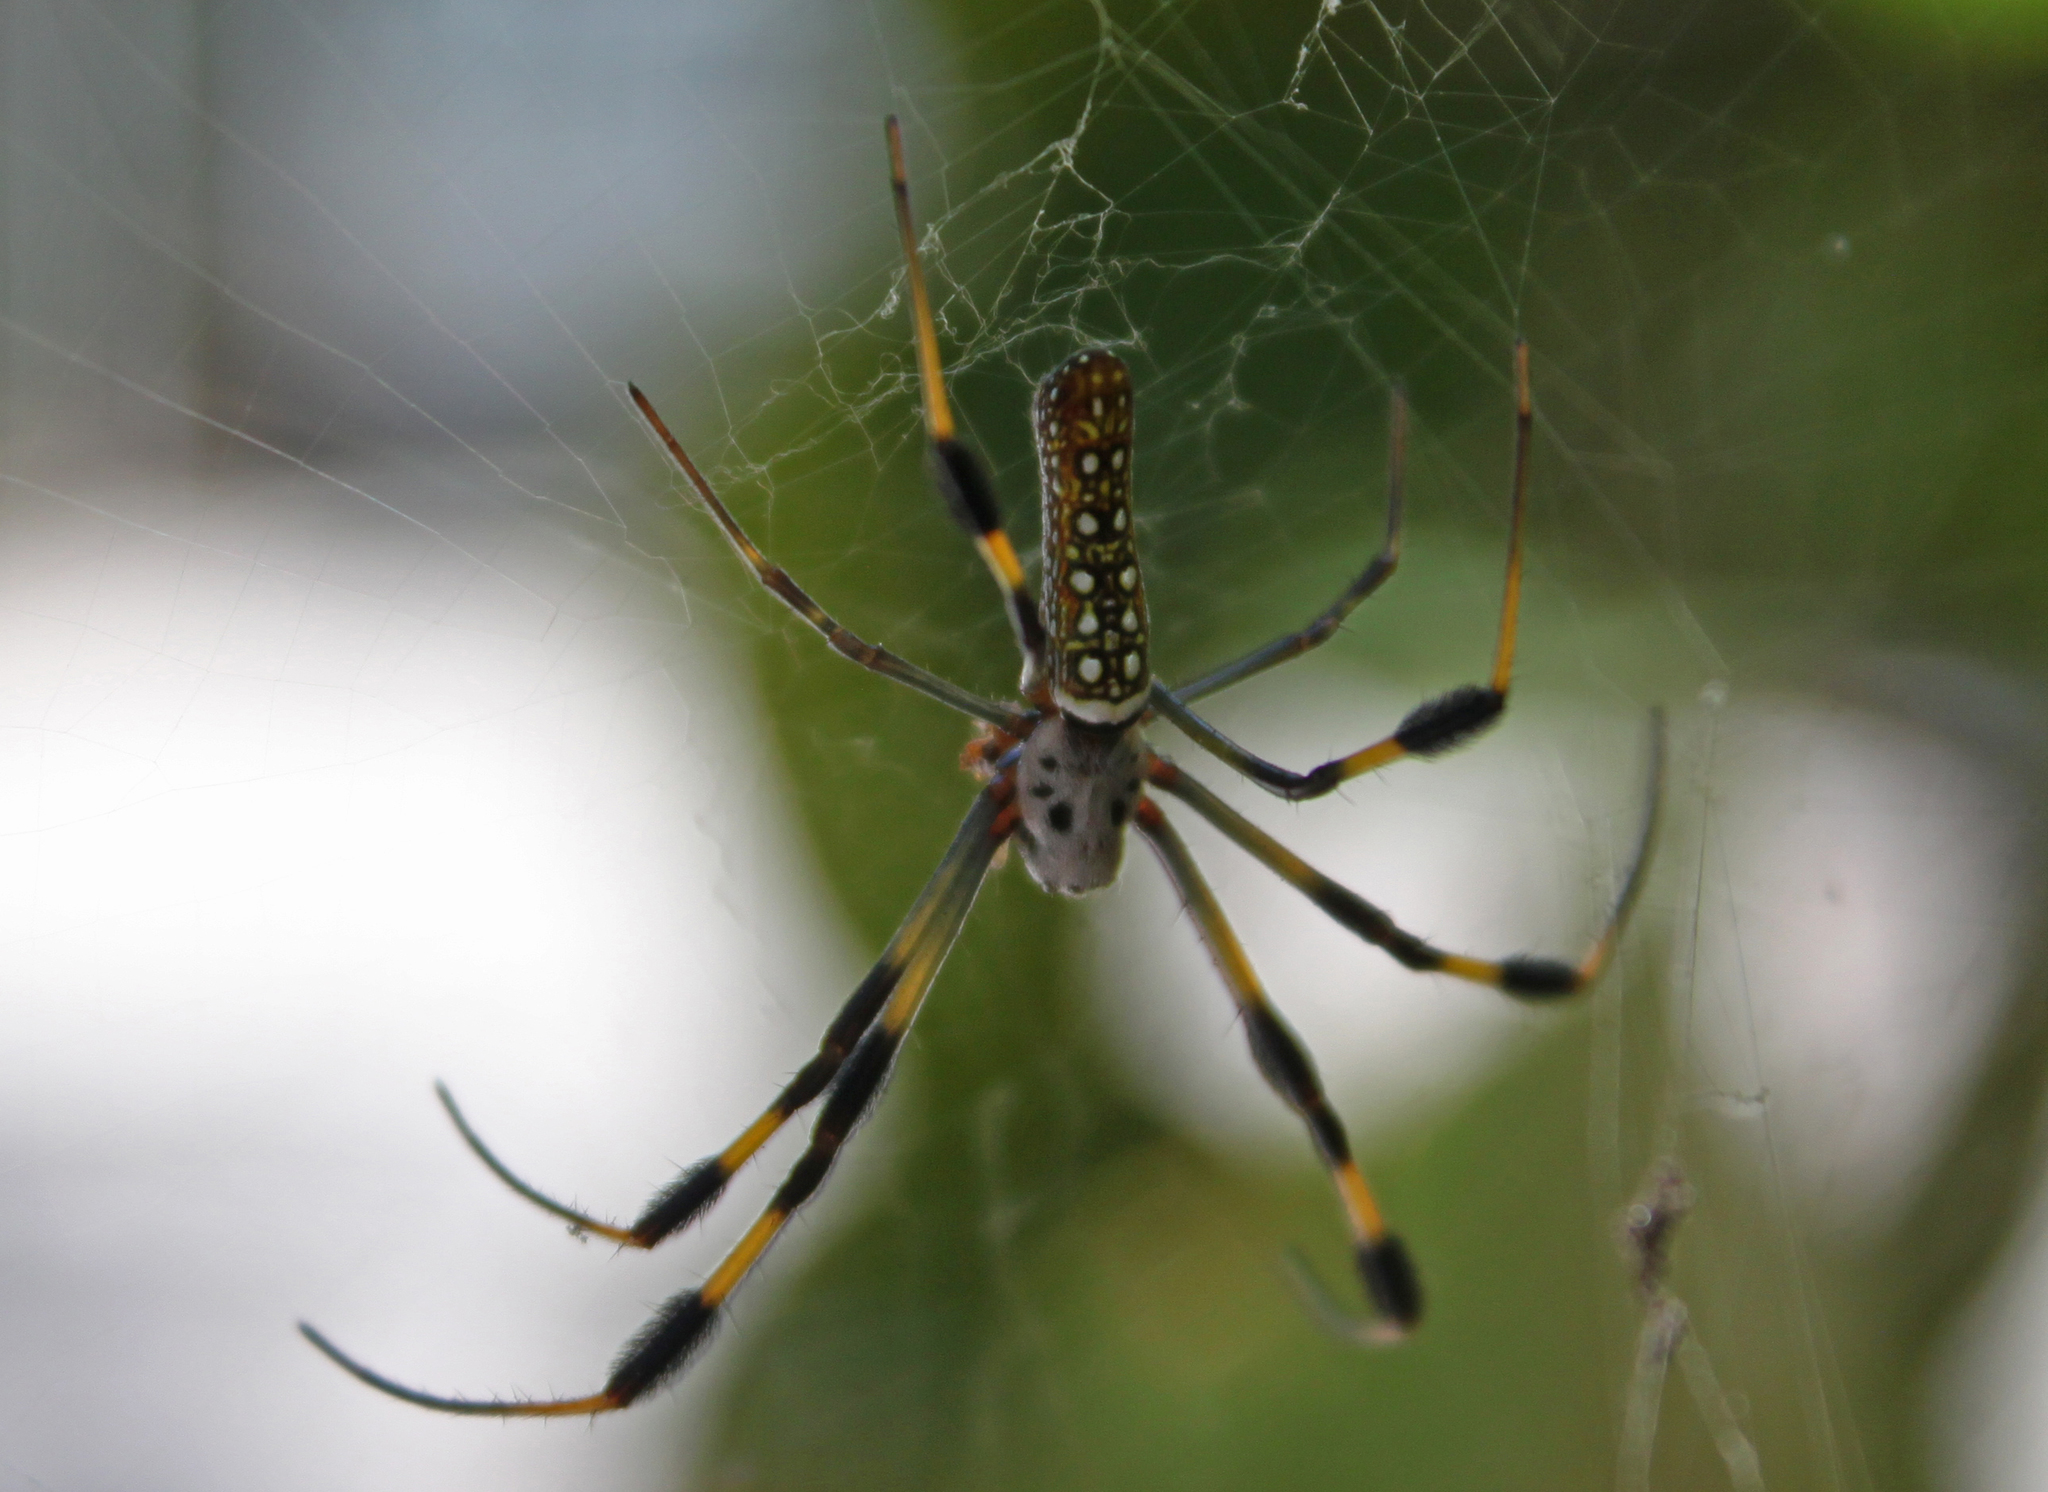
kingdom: Animalia
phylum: Arthropoda
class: Arachnida
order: Araneae
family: Araneidae
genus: Trichonephila
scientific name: Trichonephila clavipes
